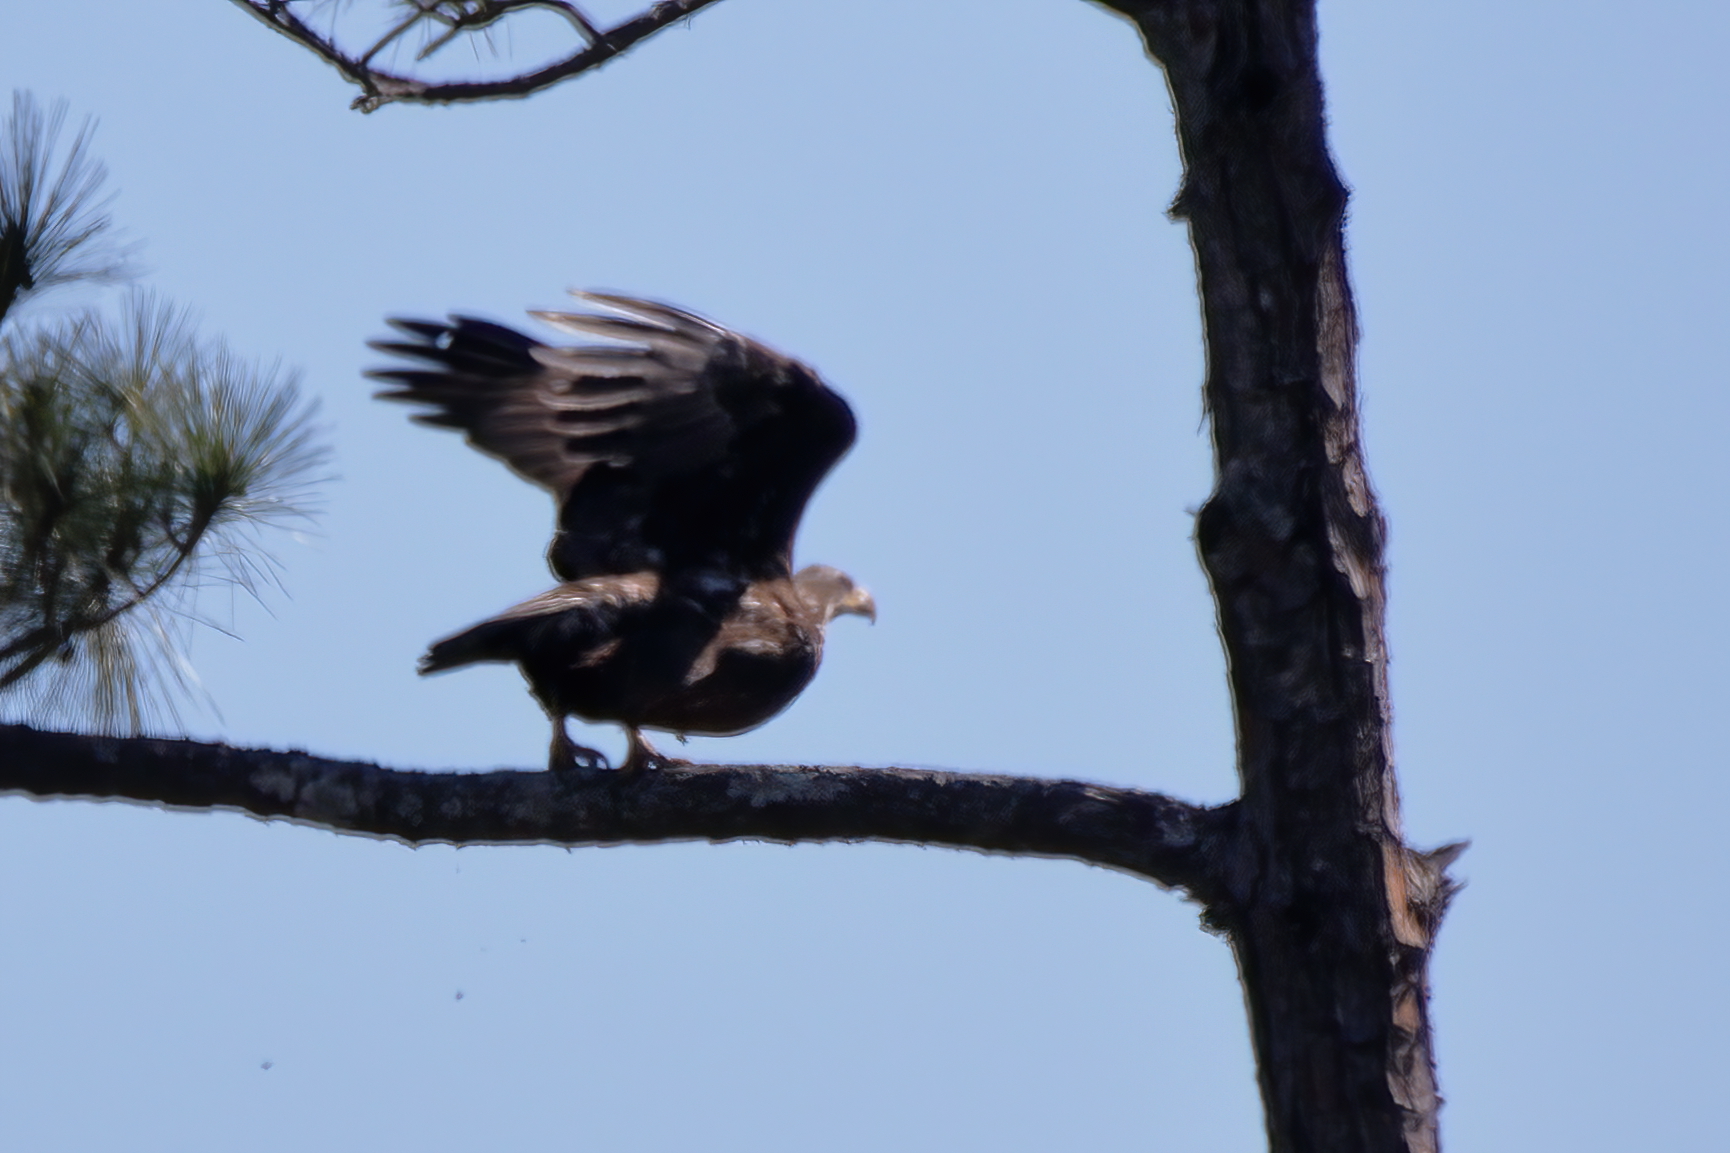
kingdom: Animalia
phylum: Chordata
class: Aves
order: Accipitriformes
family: Accipitridae
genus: Haliaeetus
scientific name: Haliaeetus leucocephalus
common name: Bald eagle
